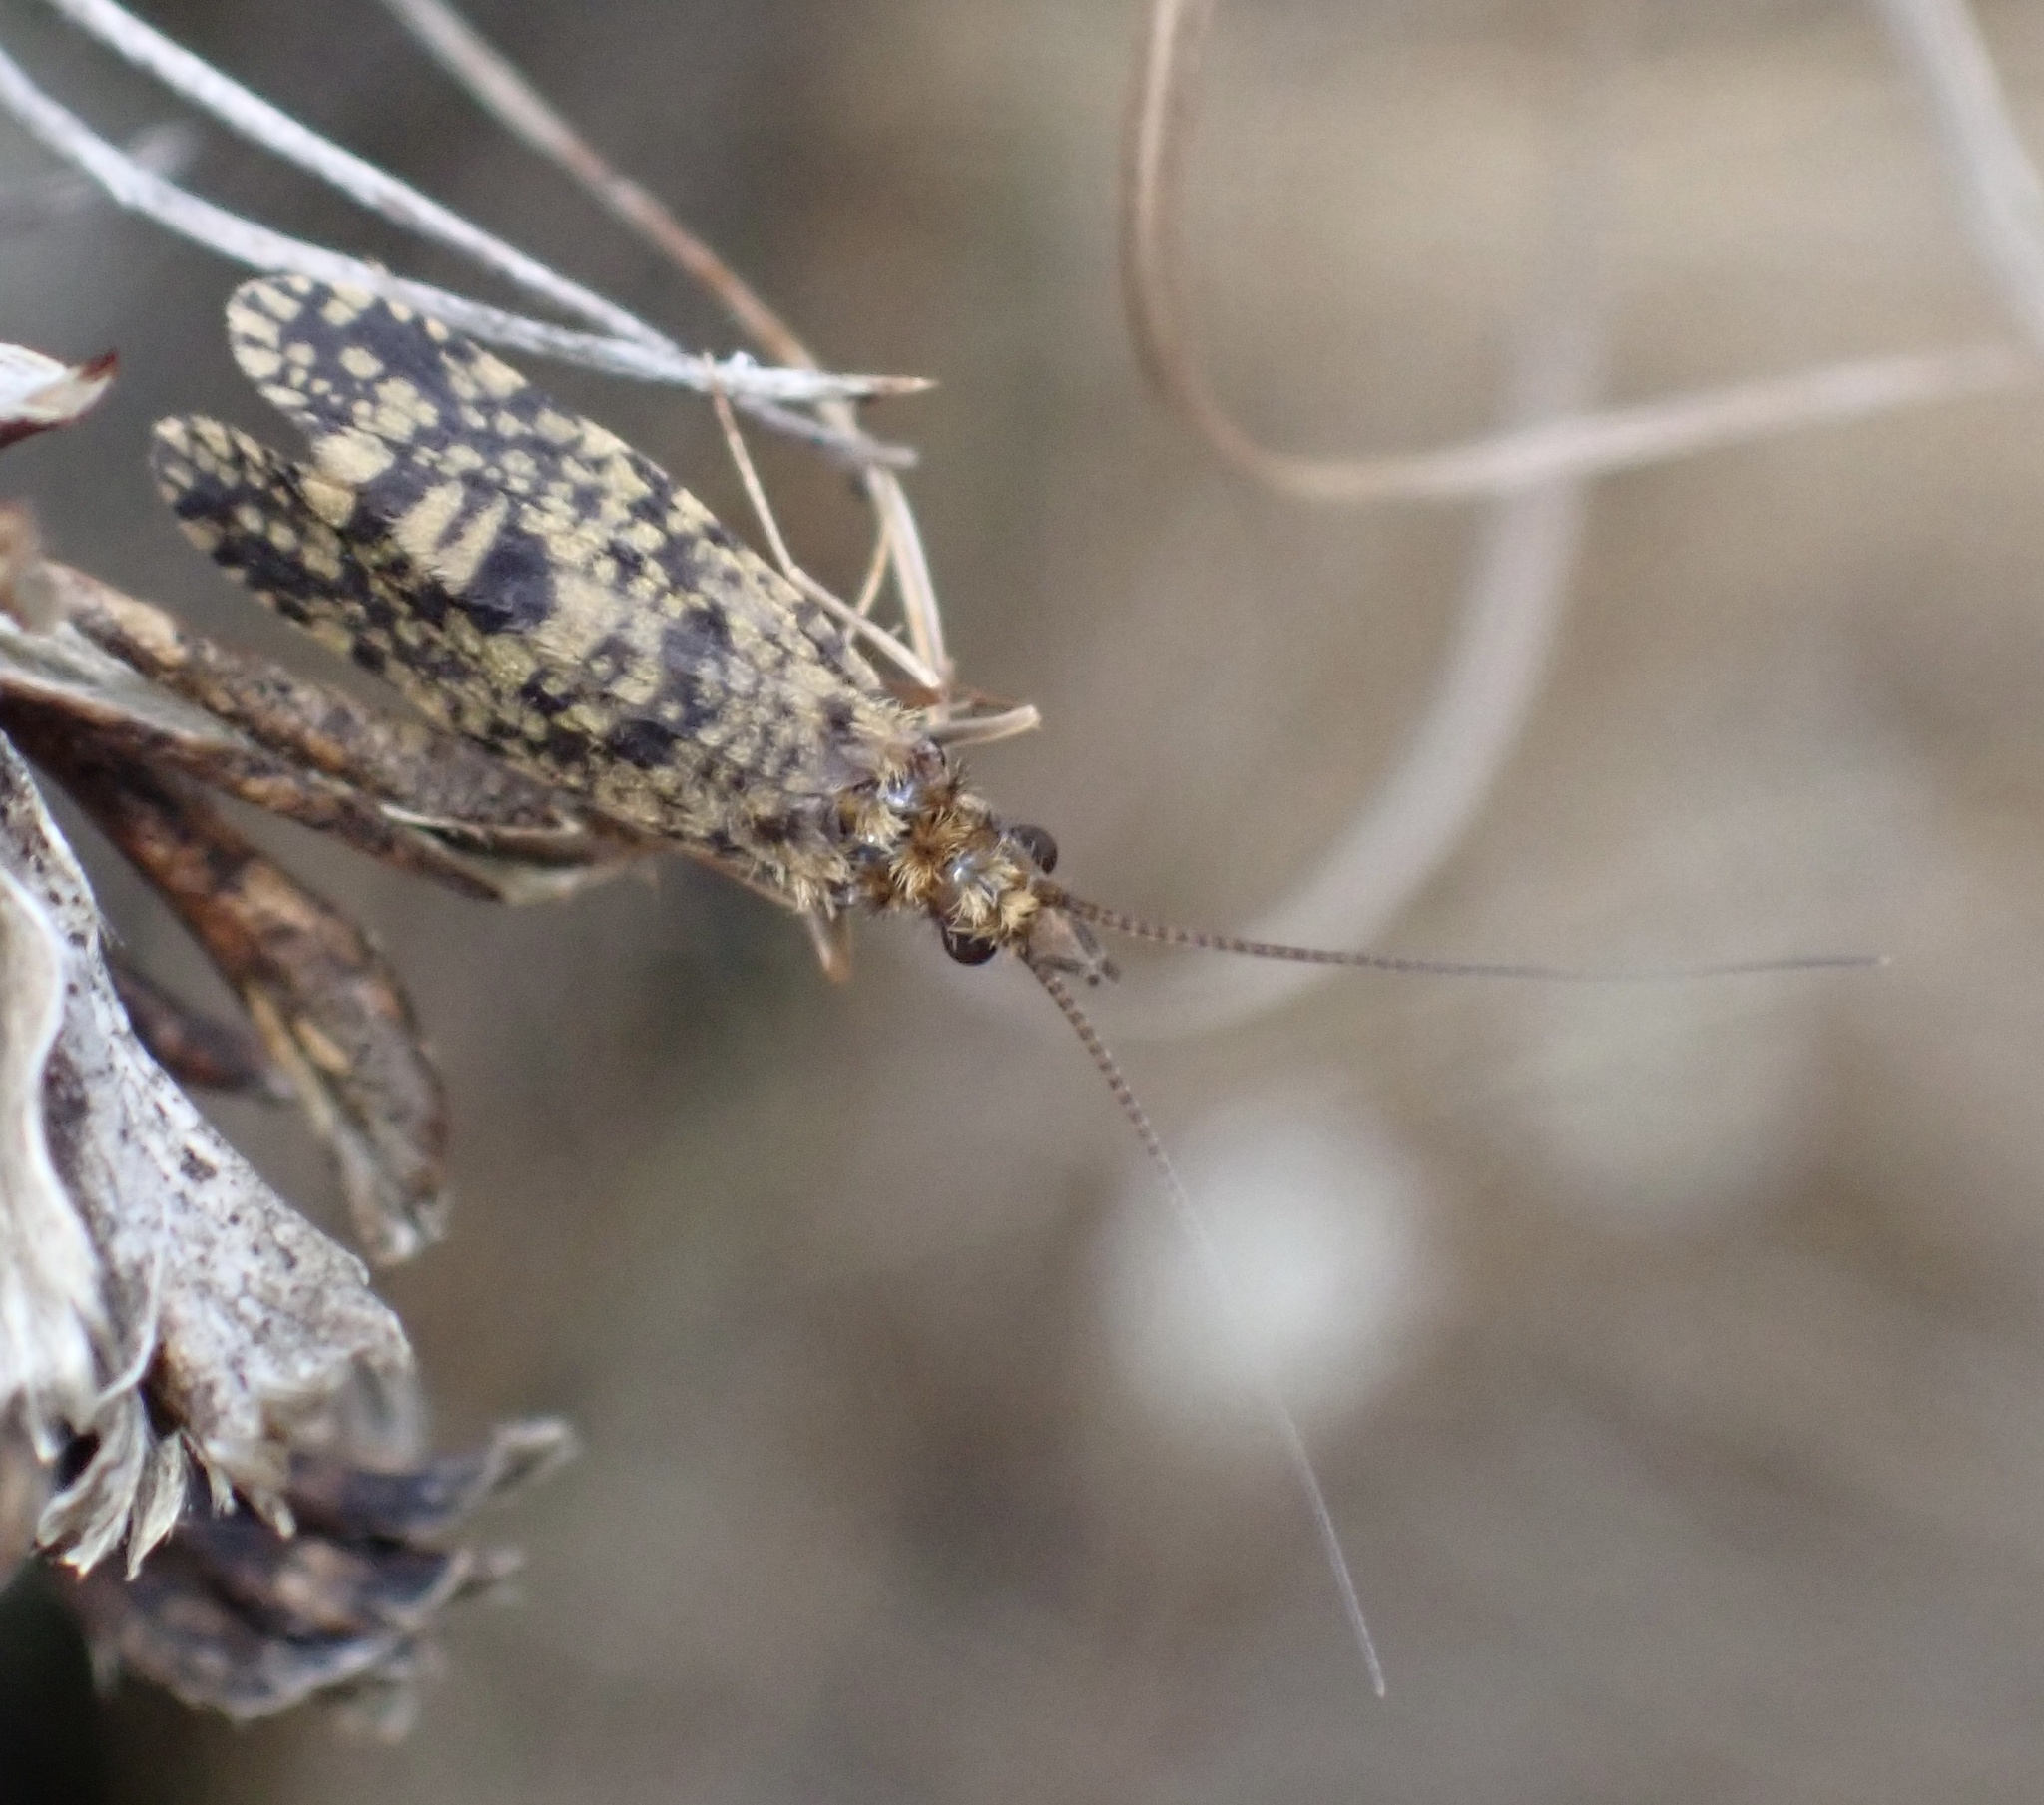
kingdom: Animalia
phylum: Arthropoda
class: Insecta
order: Trichoptera
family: Philopotamidae
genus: Philopotamus
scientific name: Philopotamus montanus
